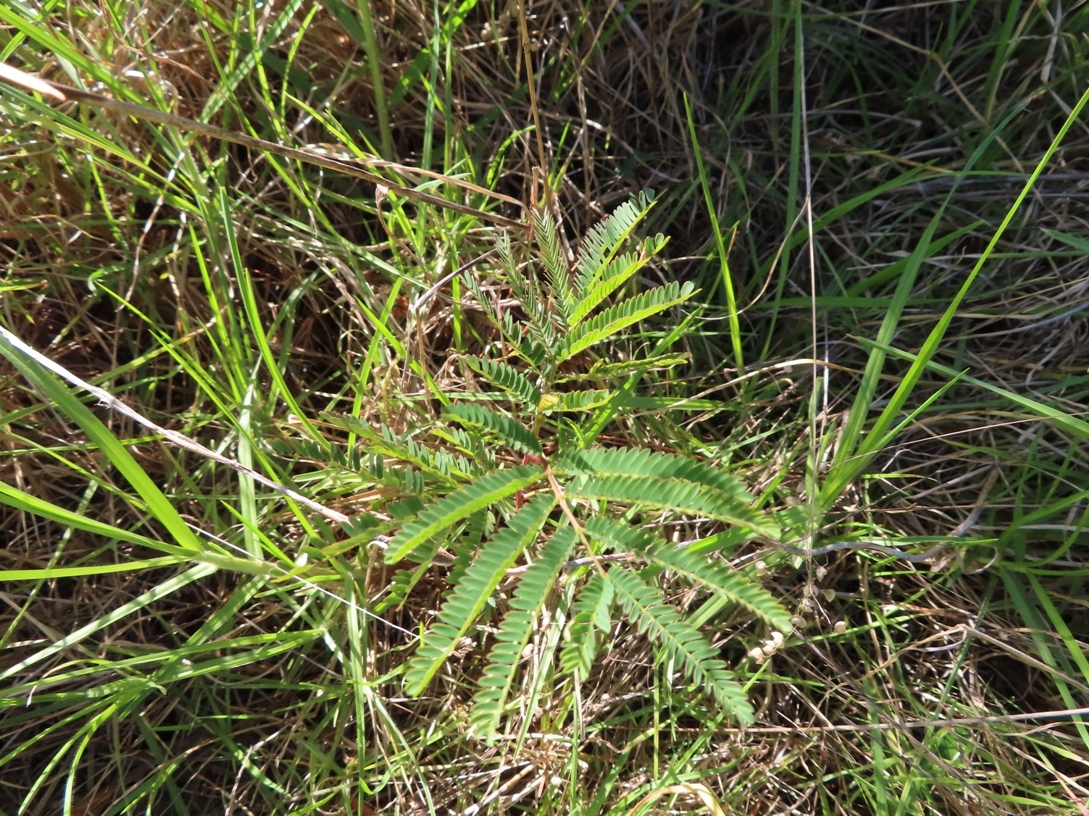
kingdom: Plantae
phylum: Tracheophyta
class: Magnoliopsida
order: Fabales
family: Fabaceae
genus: Paraserianthes
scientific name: Paraserianthes lophantha
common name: Plume albizia
